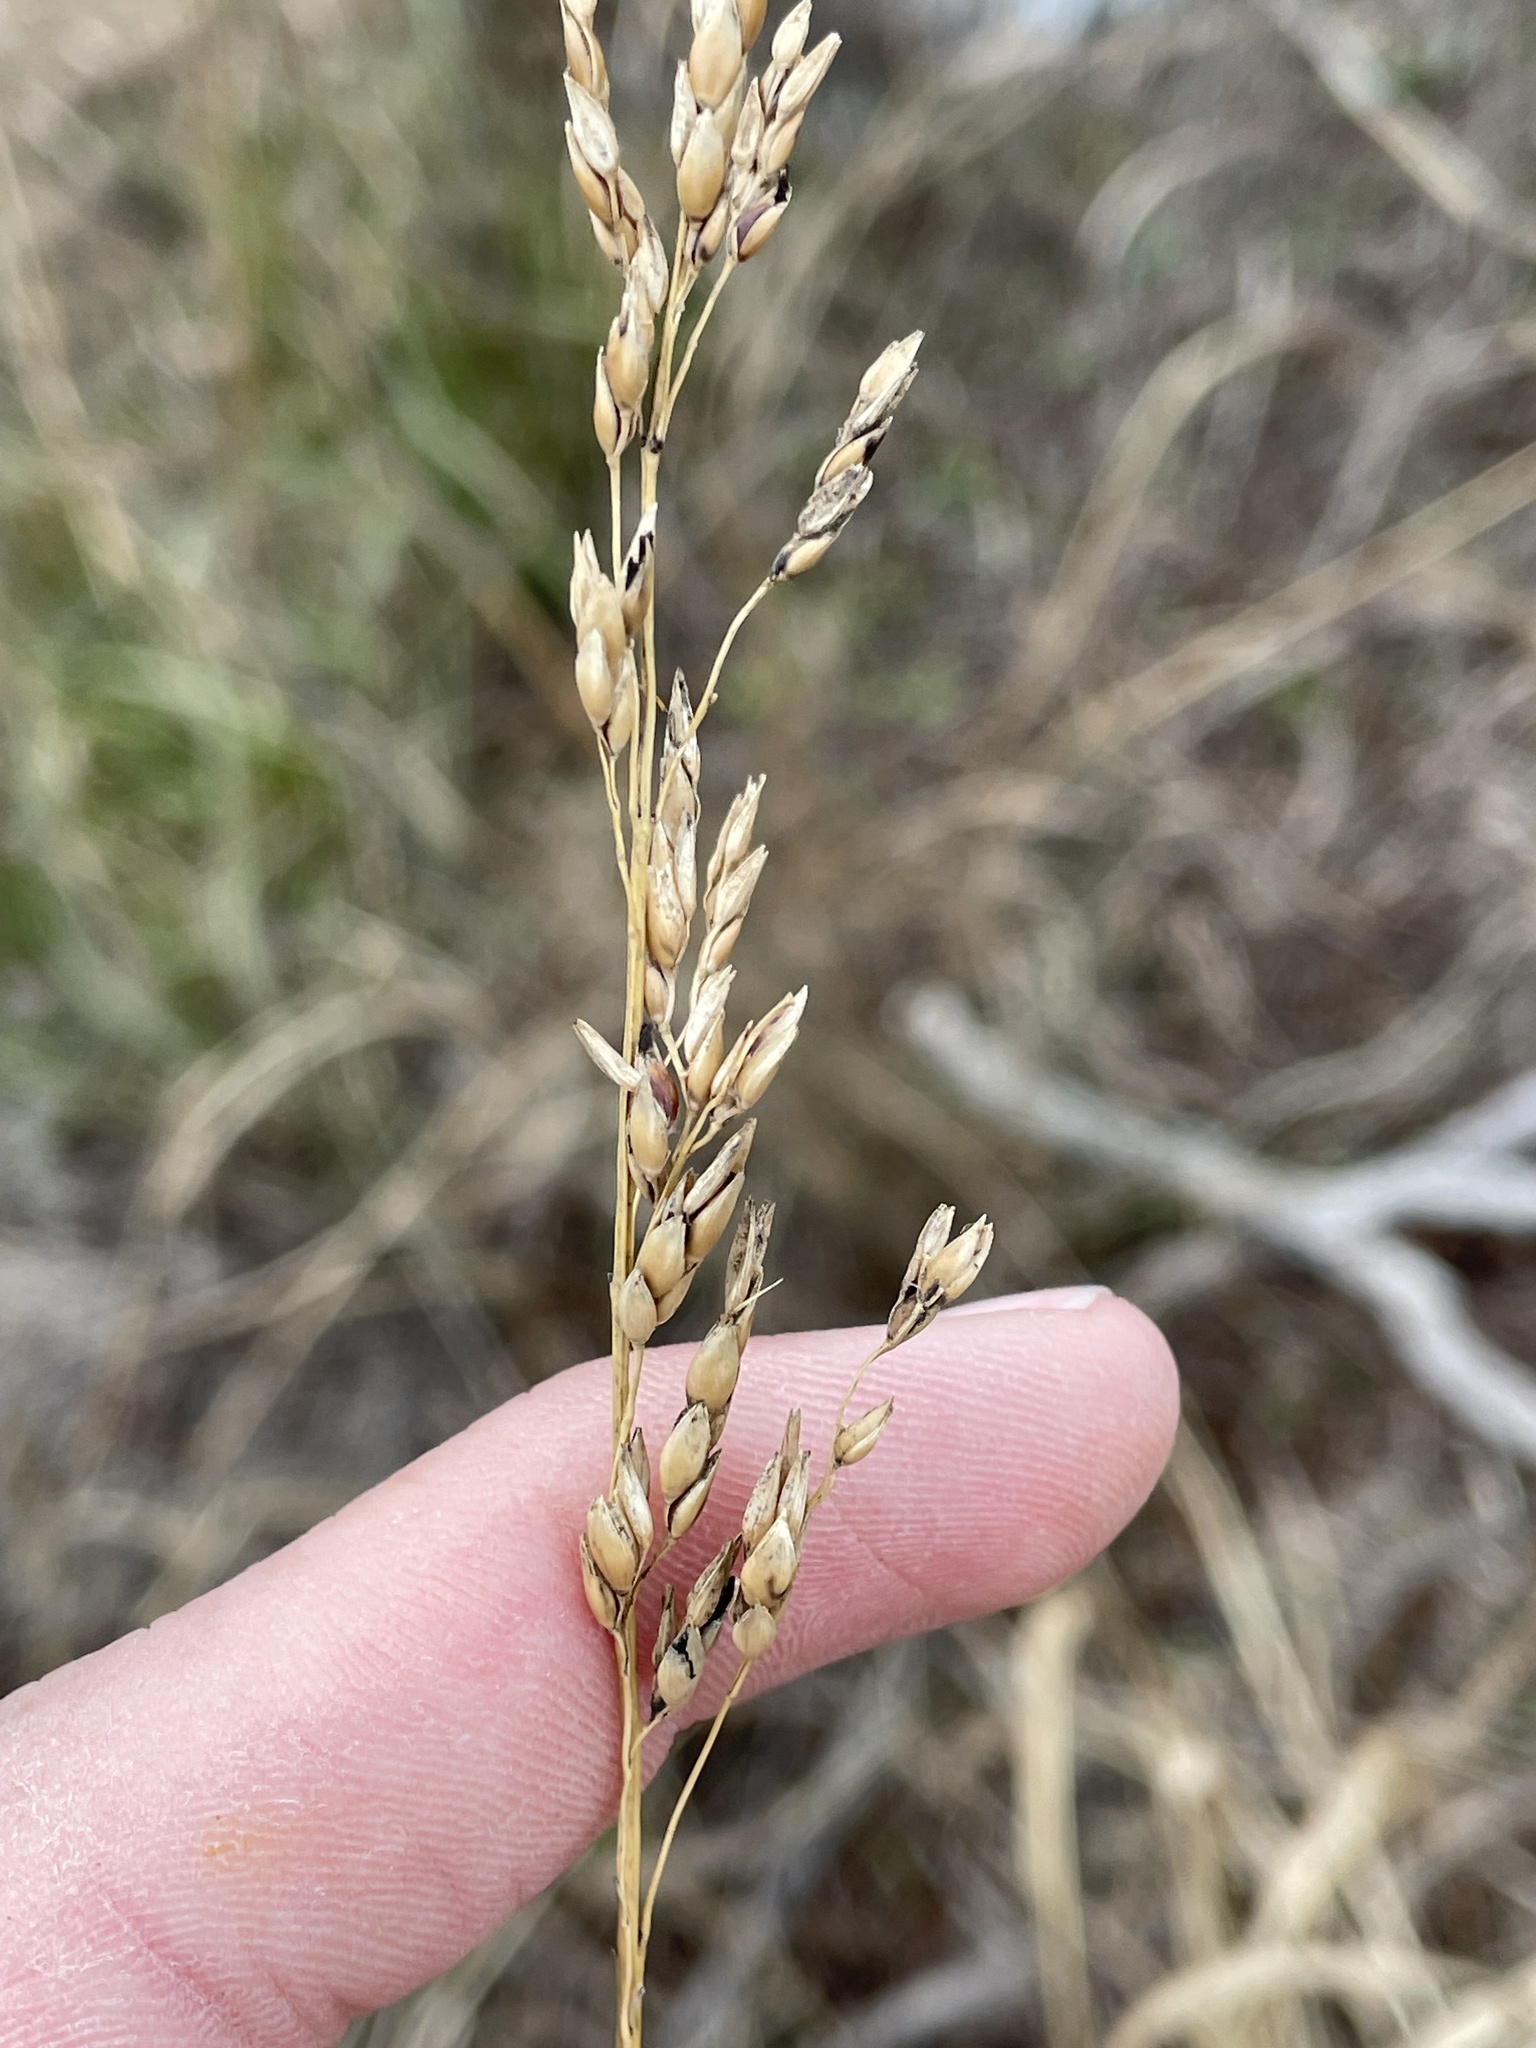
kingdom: Plantae
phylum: Tracheophyta
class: Liliopsida
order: Poales
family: Poaceae
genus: Sorghum
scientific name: Sorghum halepense
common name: Johnson-grass
